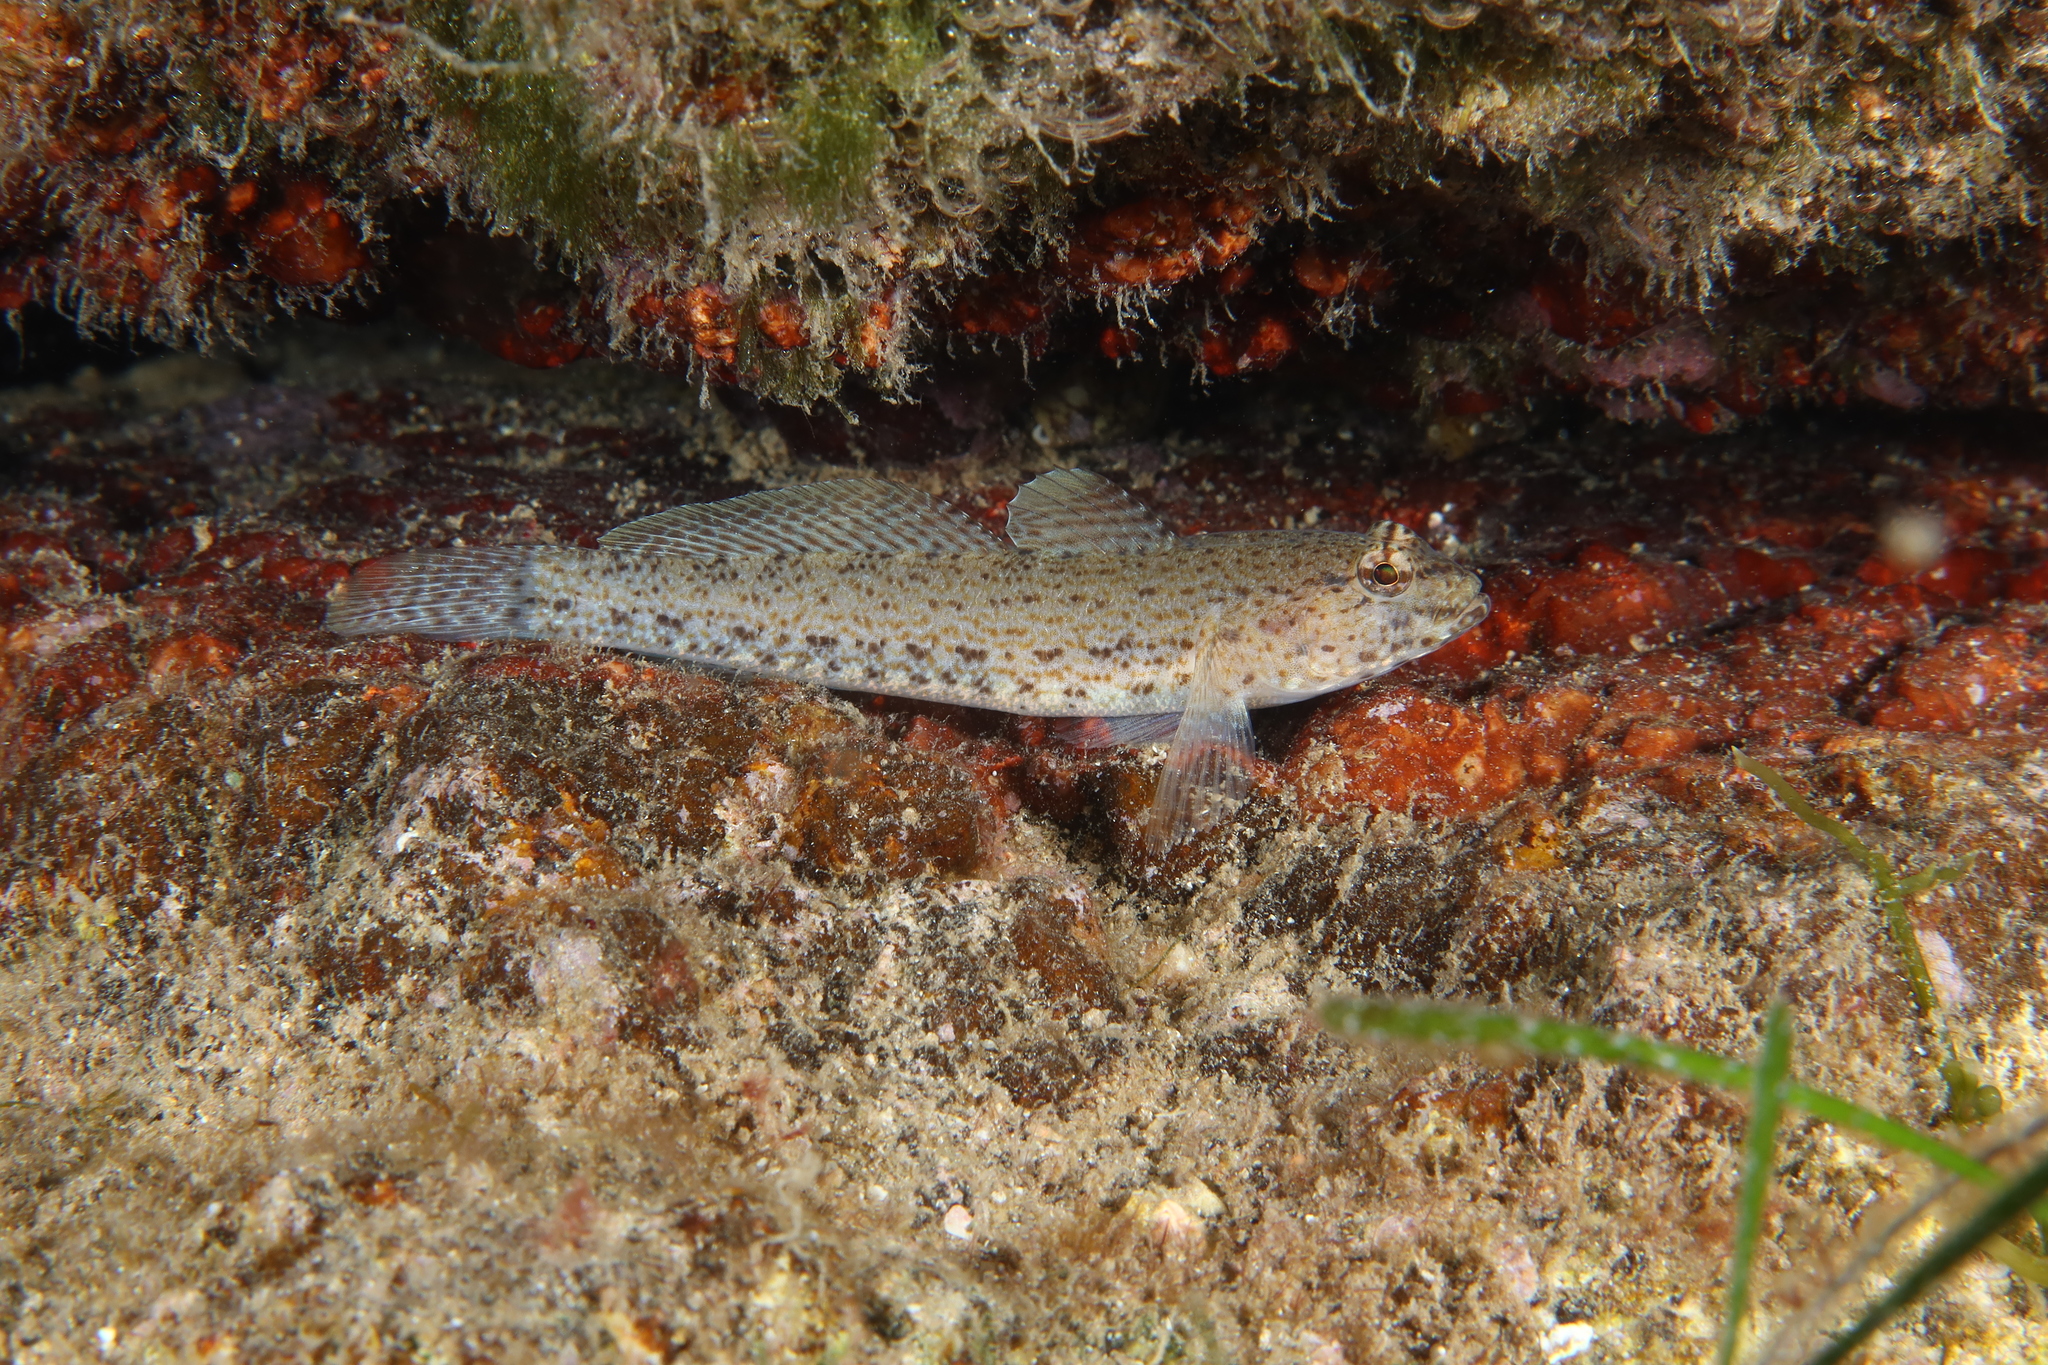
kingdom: Animalia
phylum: Chordata
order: Perciformes
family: Gobiidae
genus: Gobius
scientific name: Gobius incognitus
